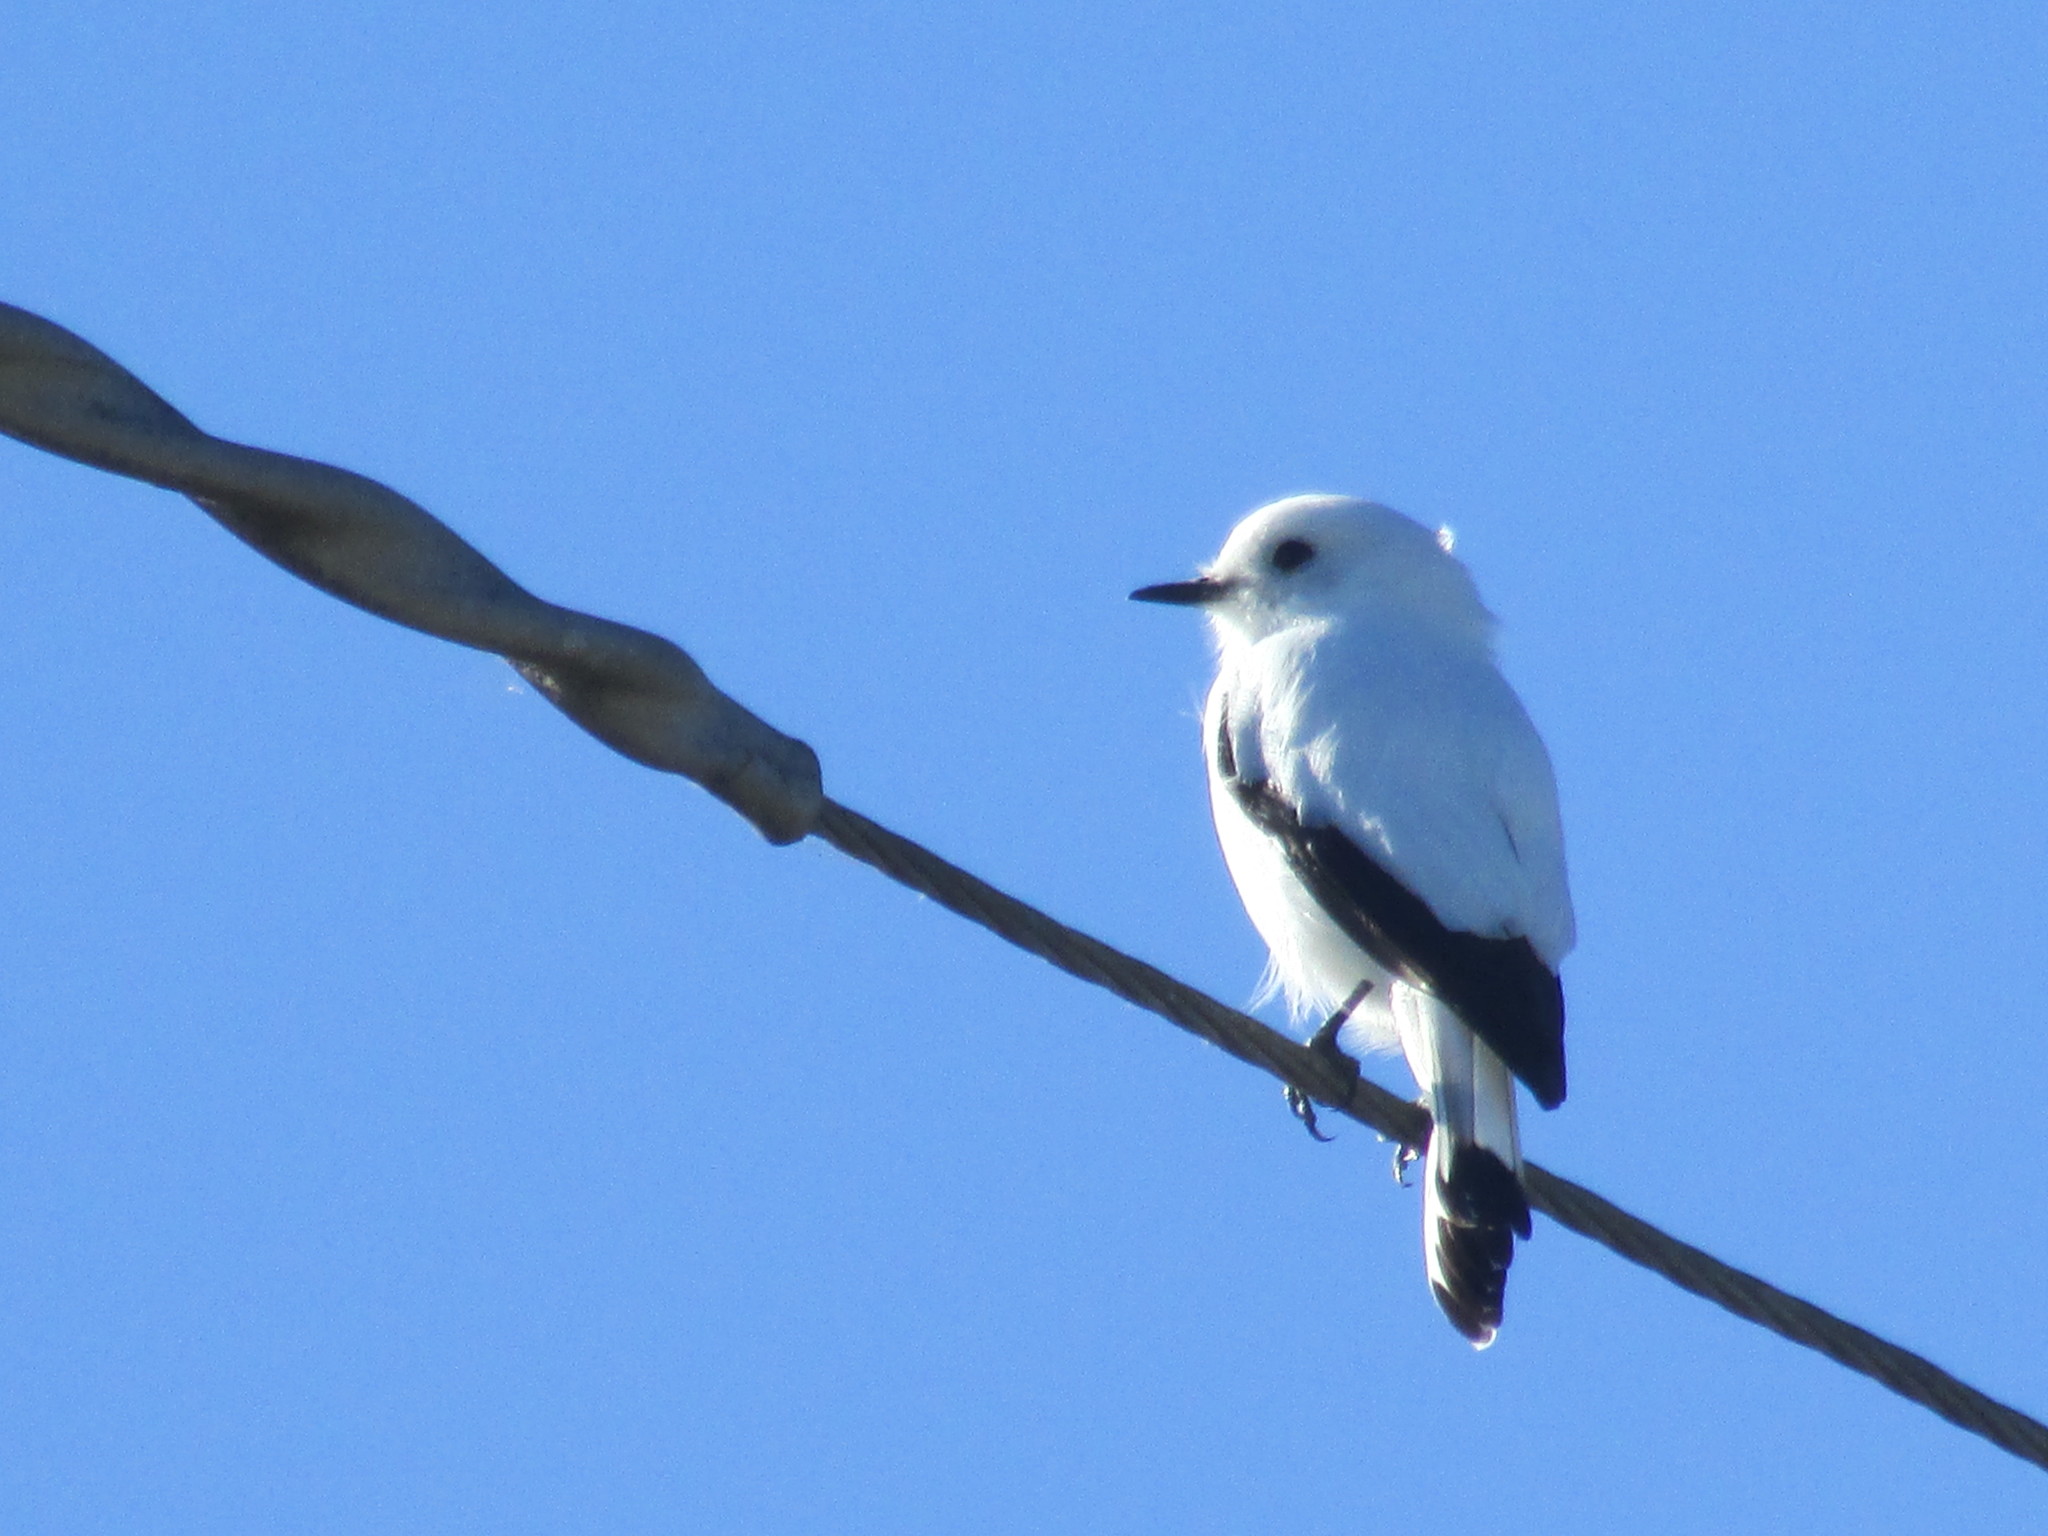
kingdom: Animalia
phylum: Chordata
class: Aves
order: Passeriformes
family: Tyrannidae
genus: Xolmis
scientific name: Xolmis irupero
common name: White monjita
